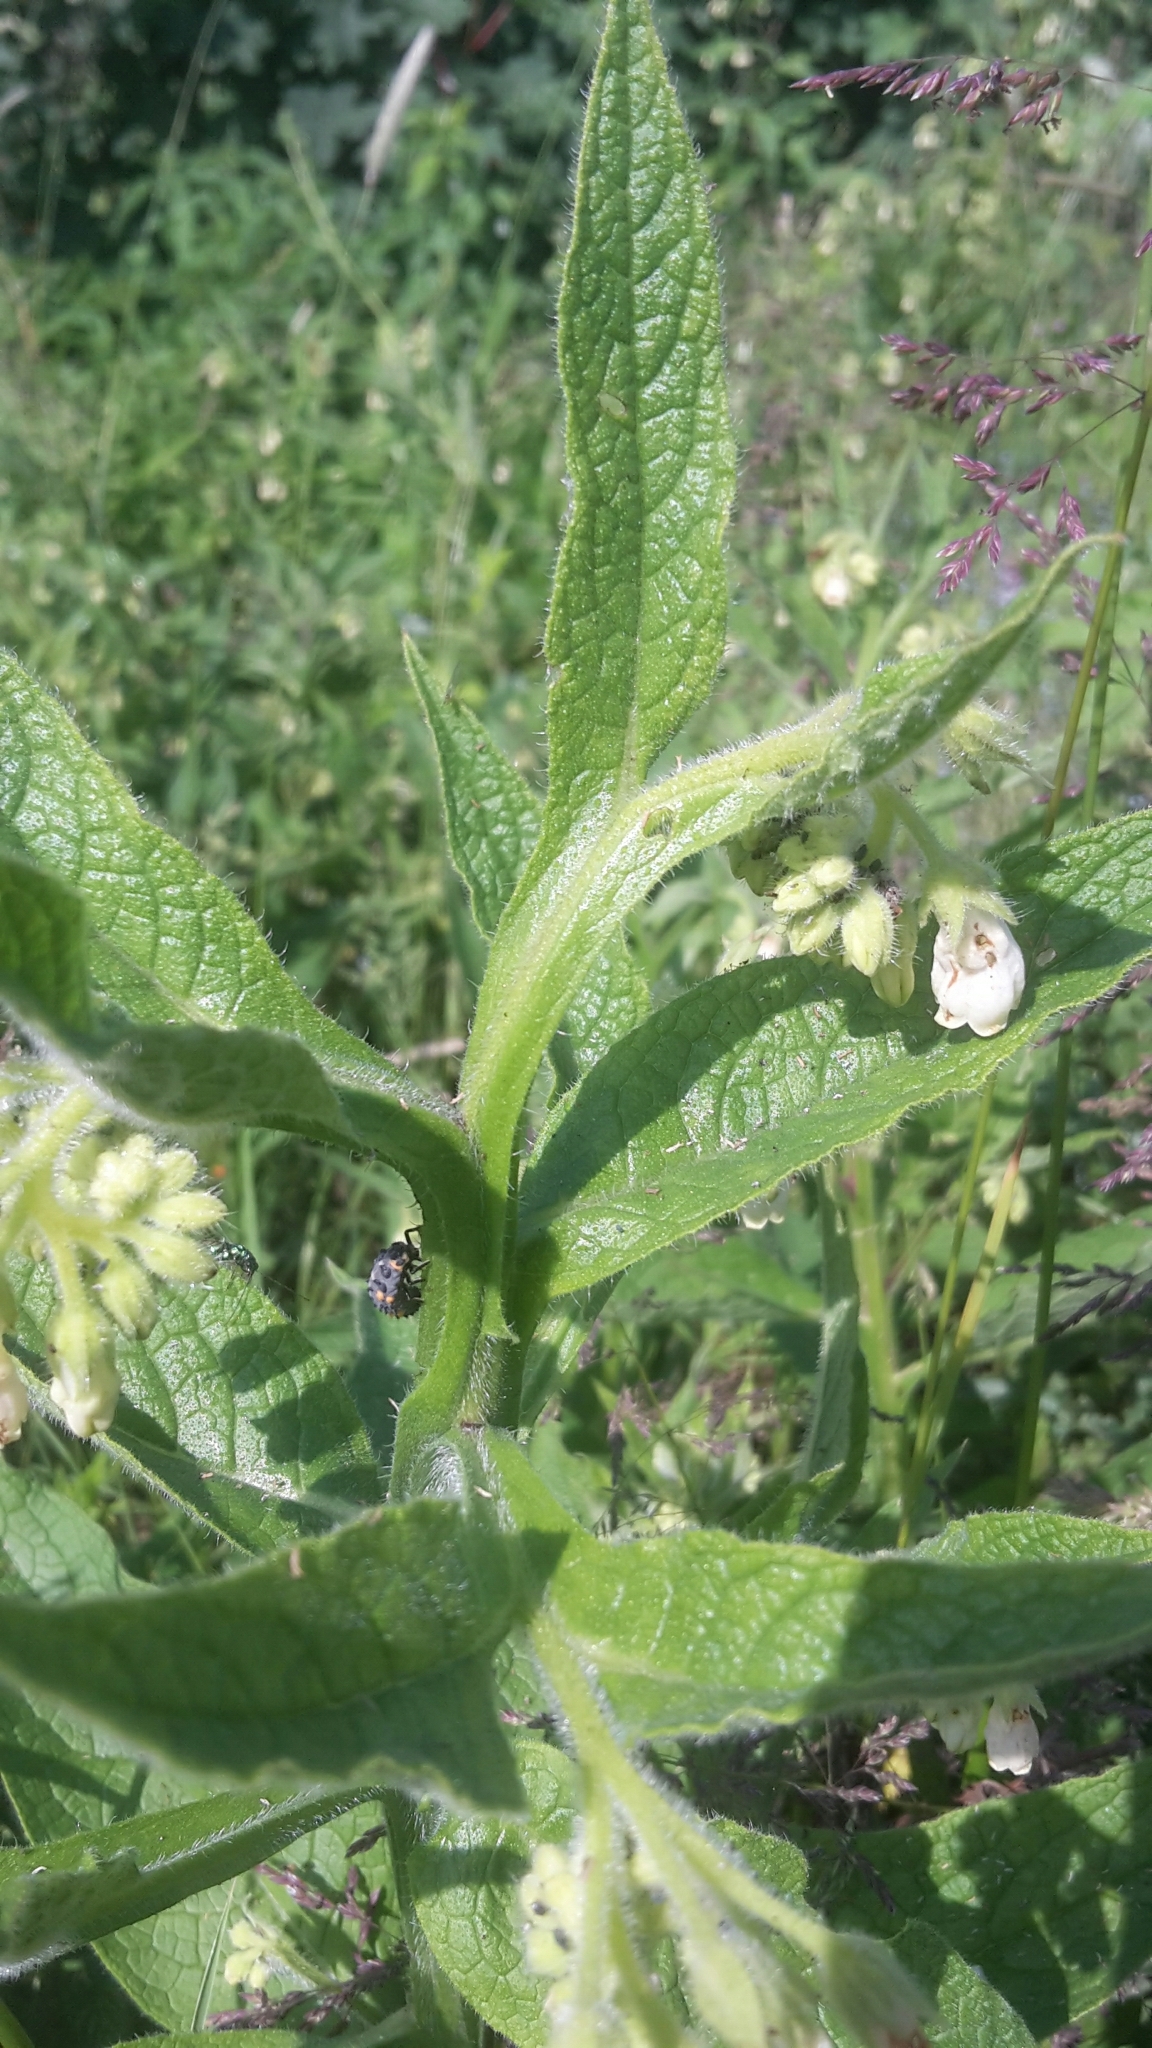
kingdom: Plantae
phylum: Tracheophyta
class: Magnoliopsida
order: Boraginales
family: Boraginaceae
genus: Symphytum
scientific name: Symphytum bohemicum
